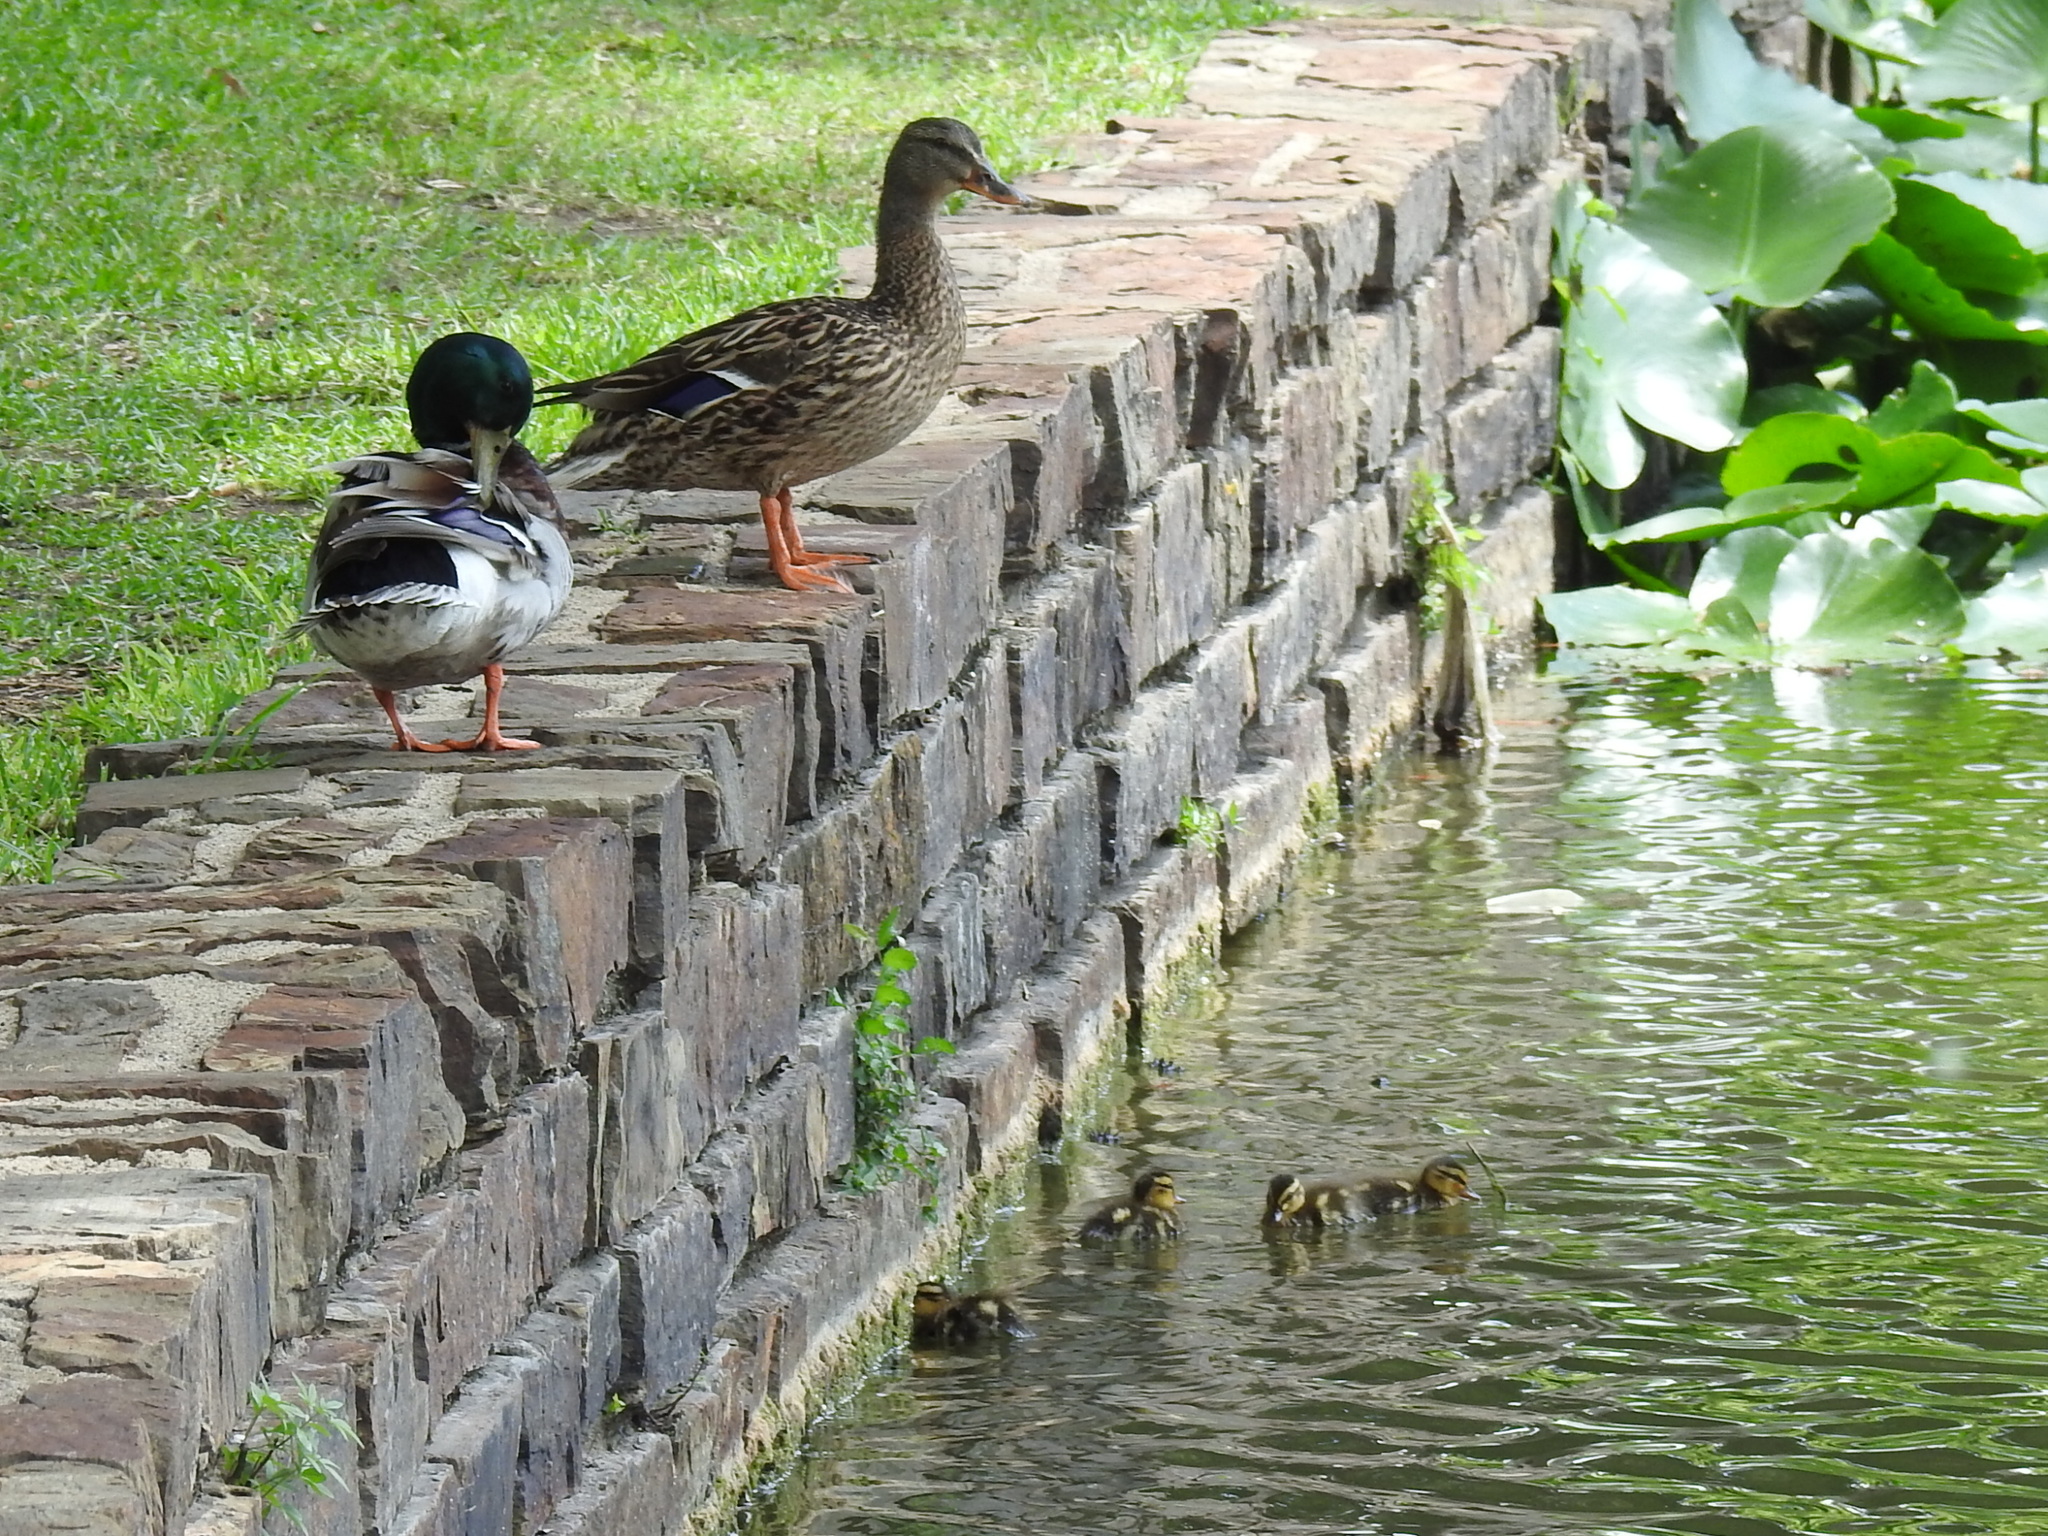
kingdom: Animalia
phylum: Chordata
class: Aves
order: Anseriformes
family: Anatidae
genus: Anas
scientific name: Anas platyrhynchos
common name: Mallard
